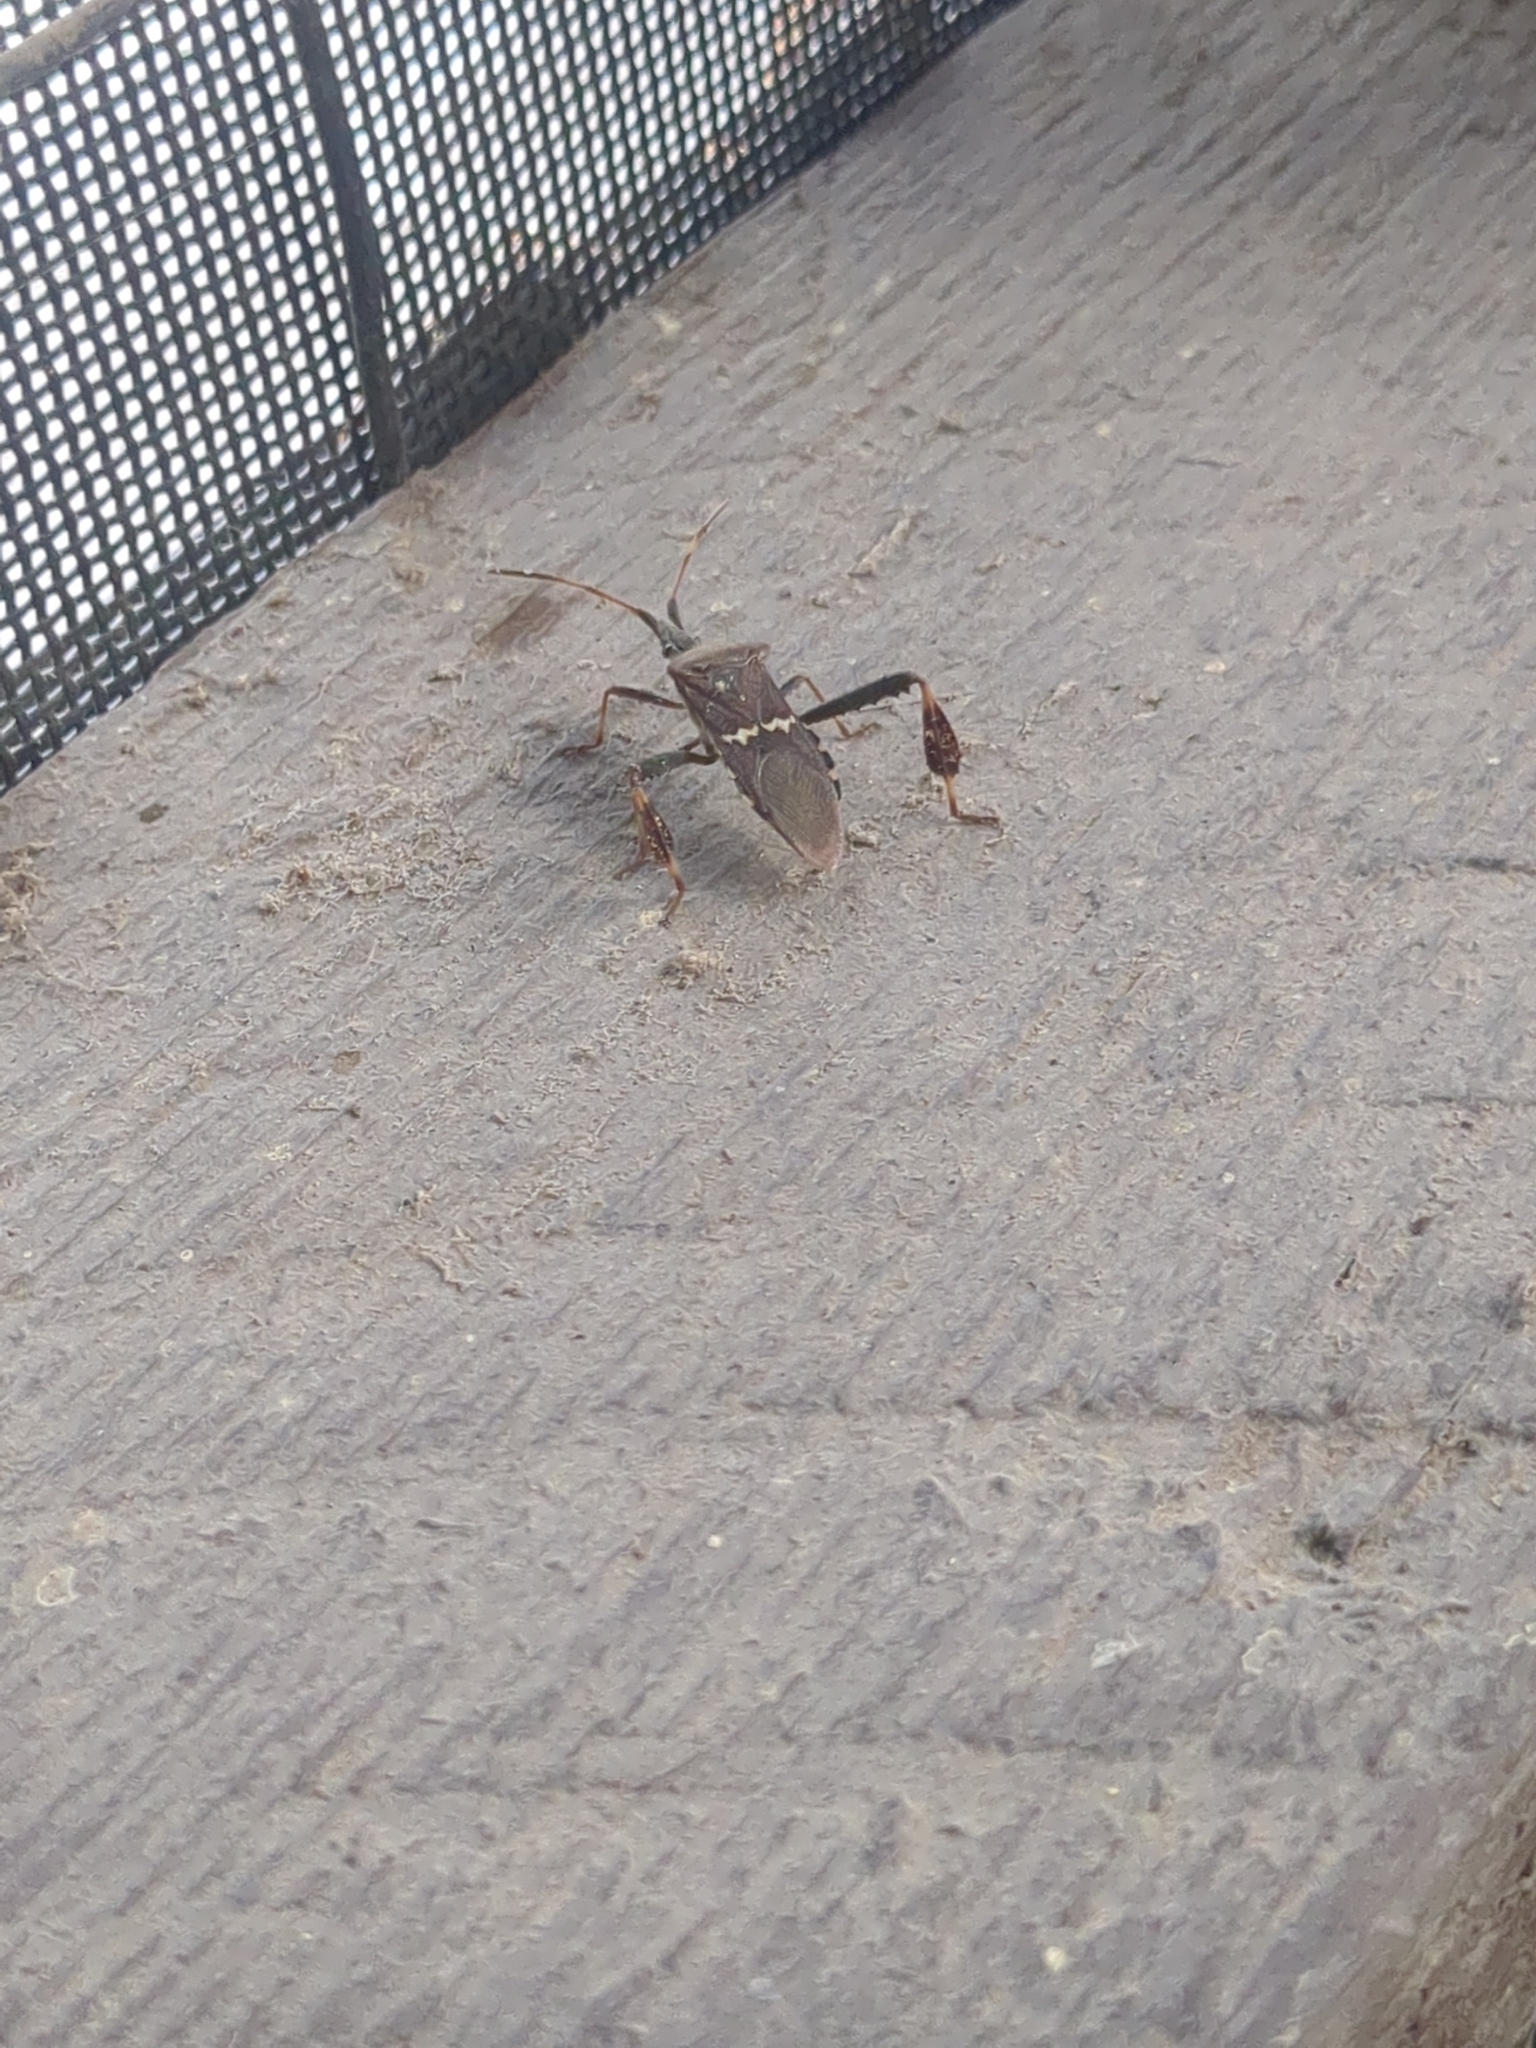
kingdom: Animalia
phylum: Arthropoda
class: Insecta
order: Hemiptera
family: Coreidae
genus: Leptoglossus
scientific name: Leptoglossus clypealis
